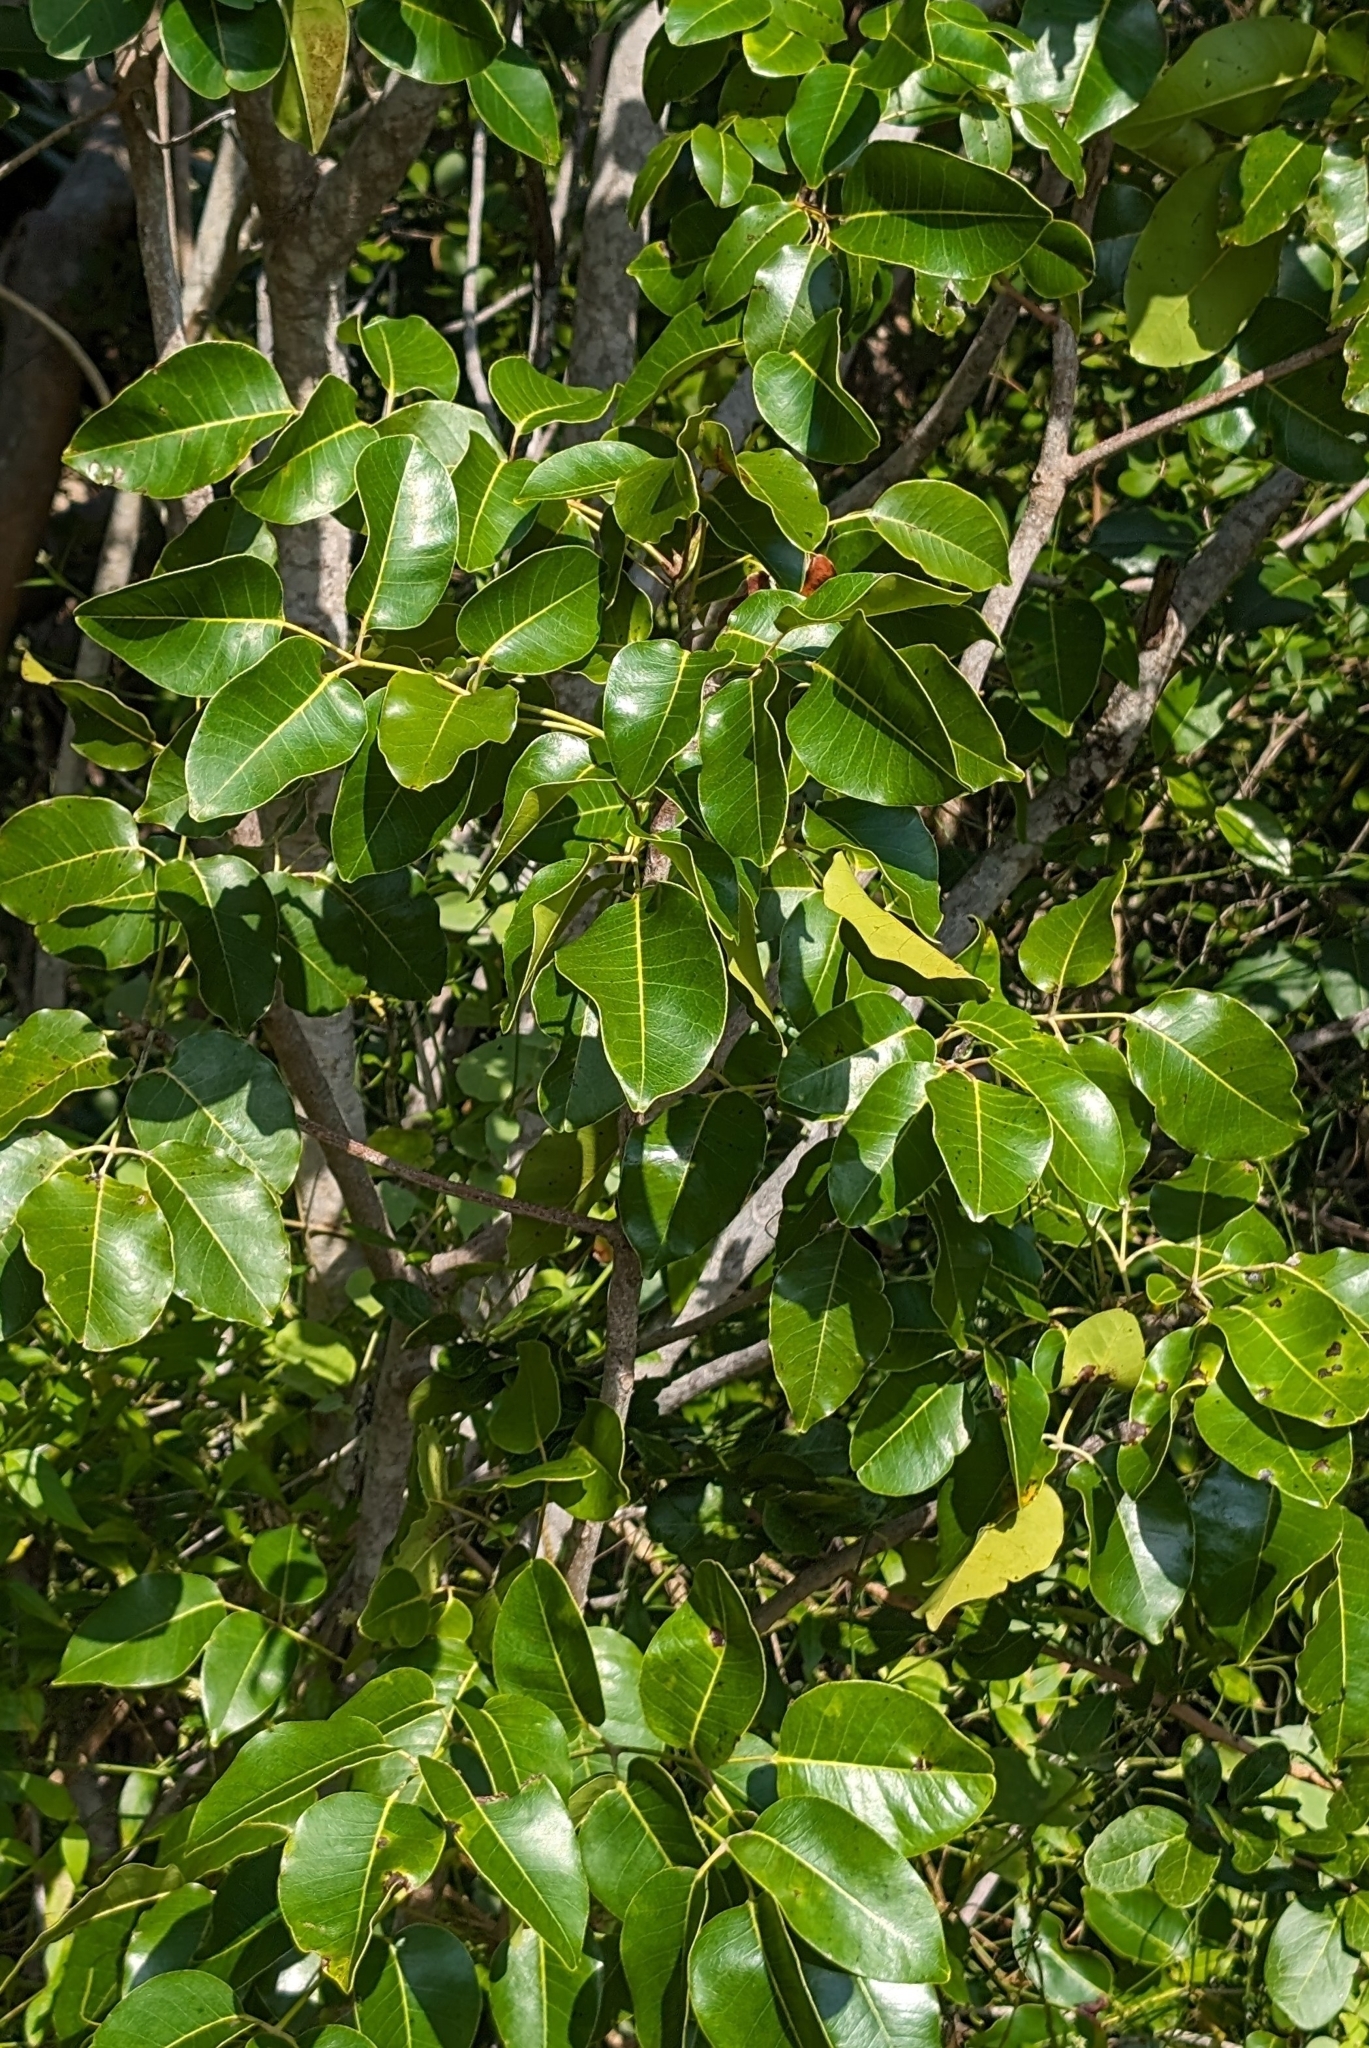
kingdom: Plantae
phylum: Tracheophyta
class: Magnoliopsida
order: Sapindales
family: Anacardiaceae
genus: Metopium
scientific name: Metopium toxiferum
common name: Florida poisontree
